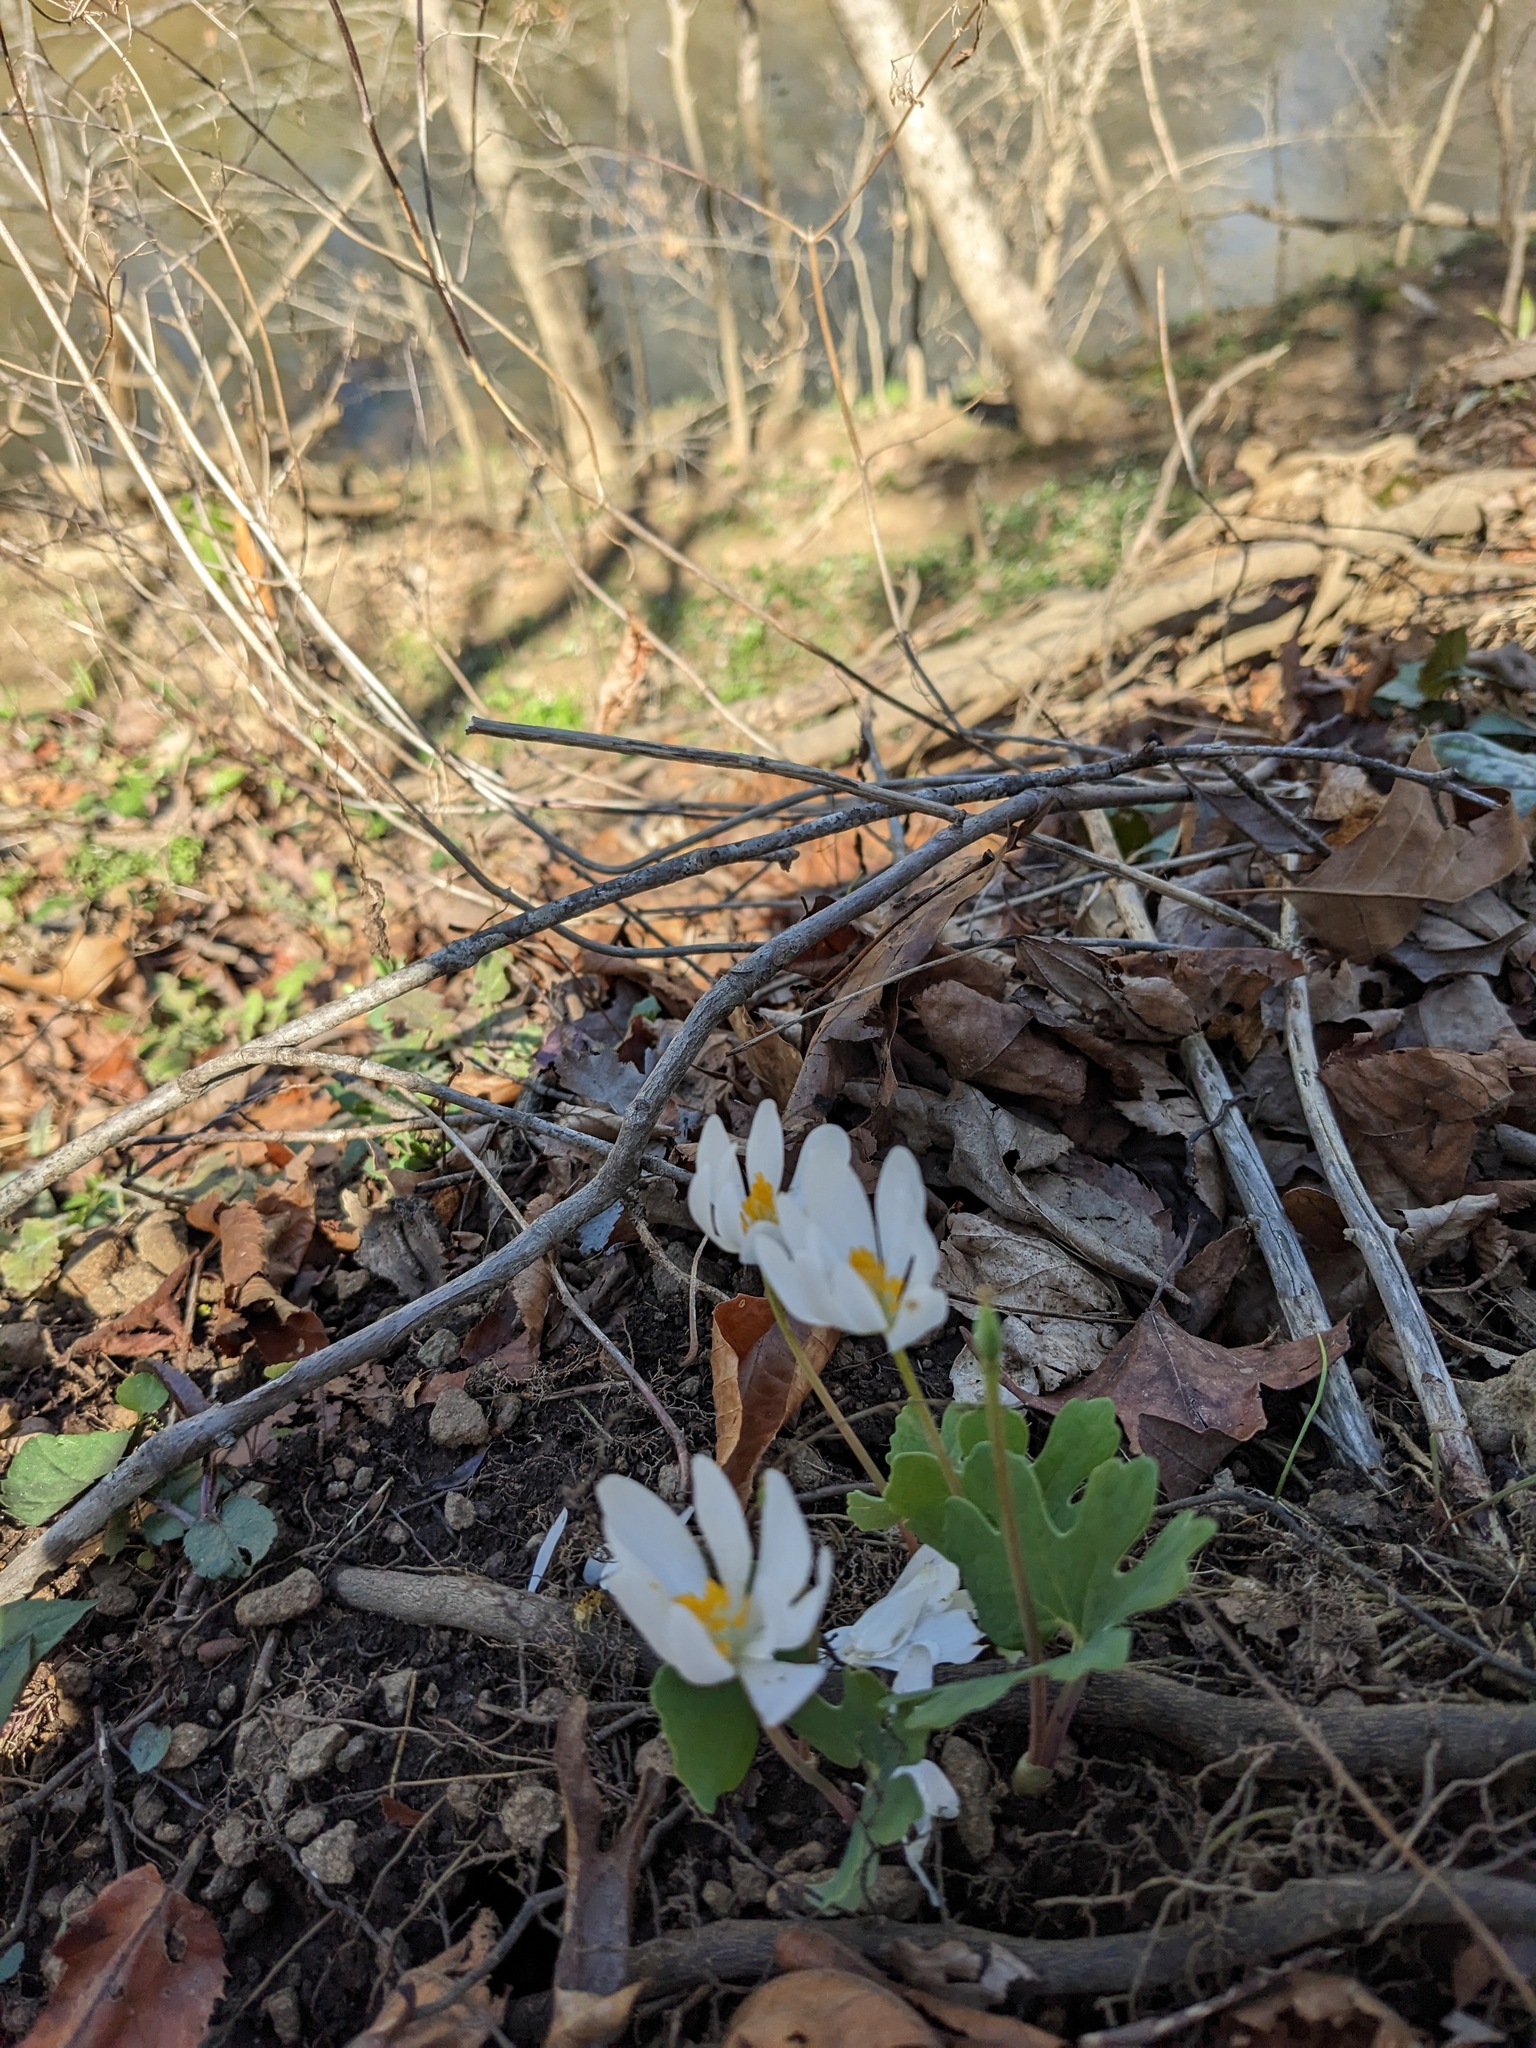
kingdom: Plantae
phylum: Tracheophyta
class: Magnoliopsida
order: Ranunculales
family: Papaveraceae
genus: Sanguinaria
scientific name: Sanguinaria canadensis
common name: Bloodroot
